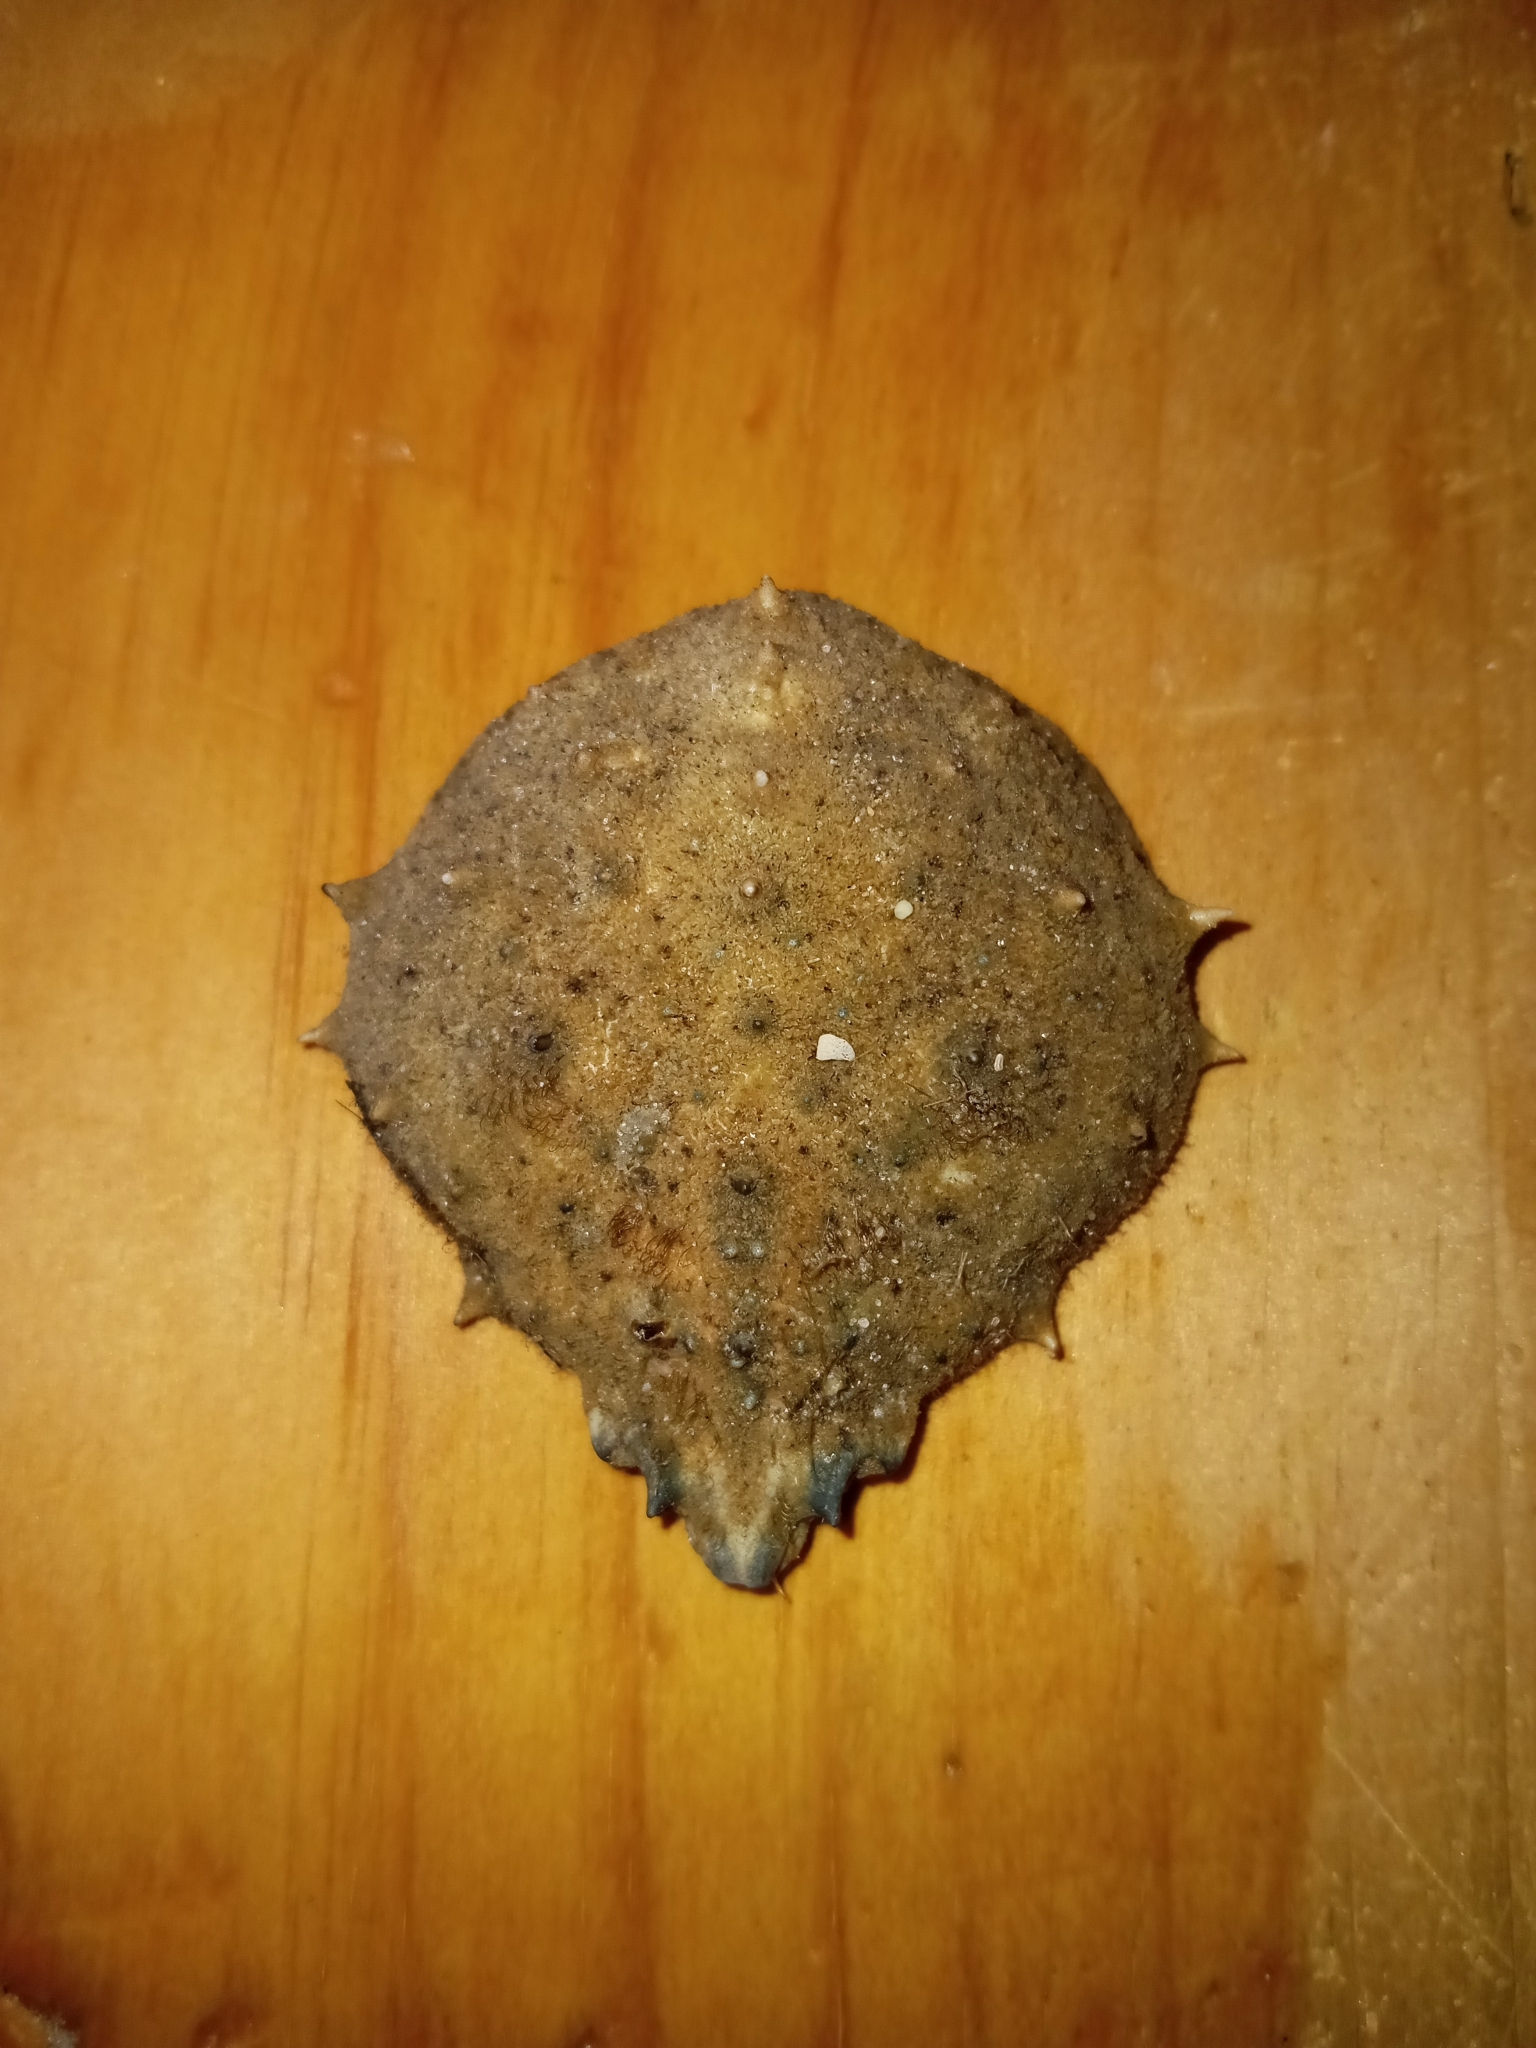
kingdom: Animalia
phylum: Arthropoda
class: Malacostraca
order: Decapoda
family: Epialtidae
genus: Libinia
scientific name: Libinia emarginata
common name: Common spider crab
